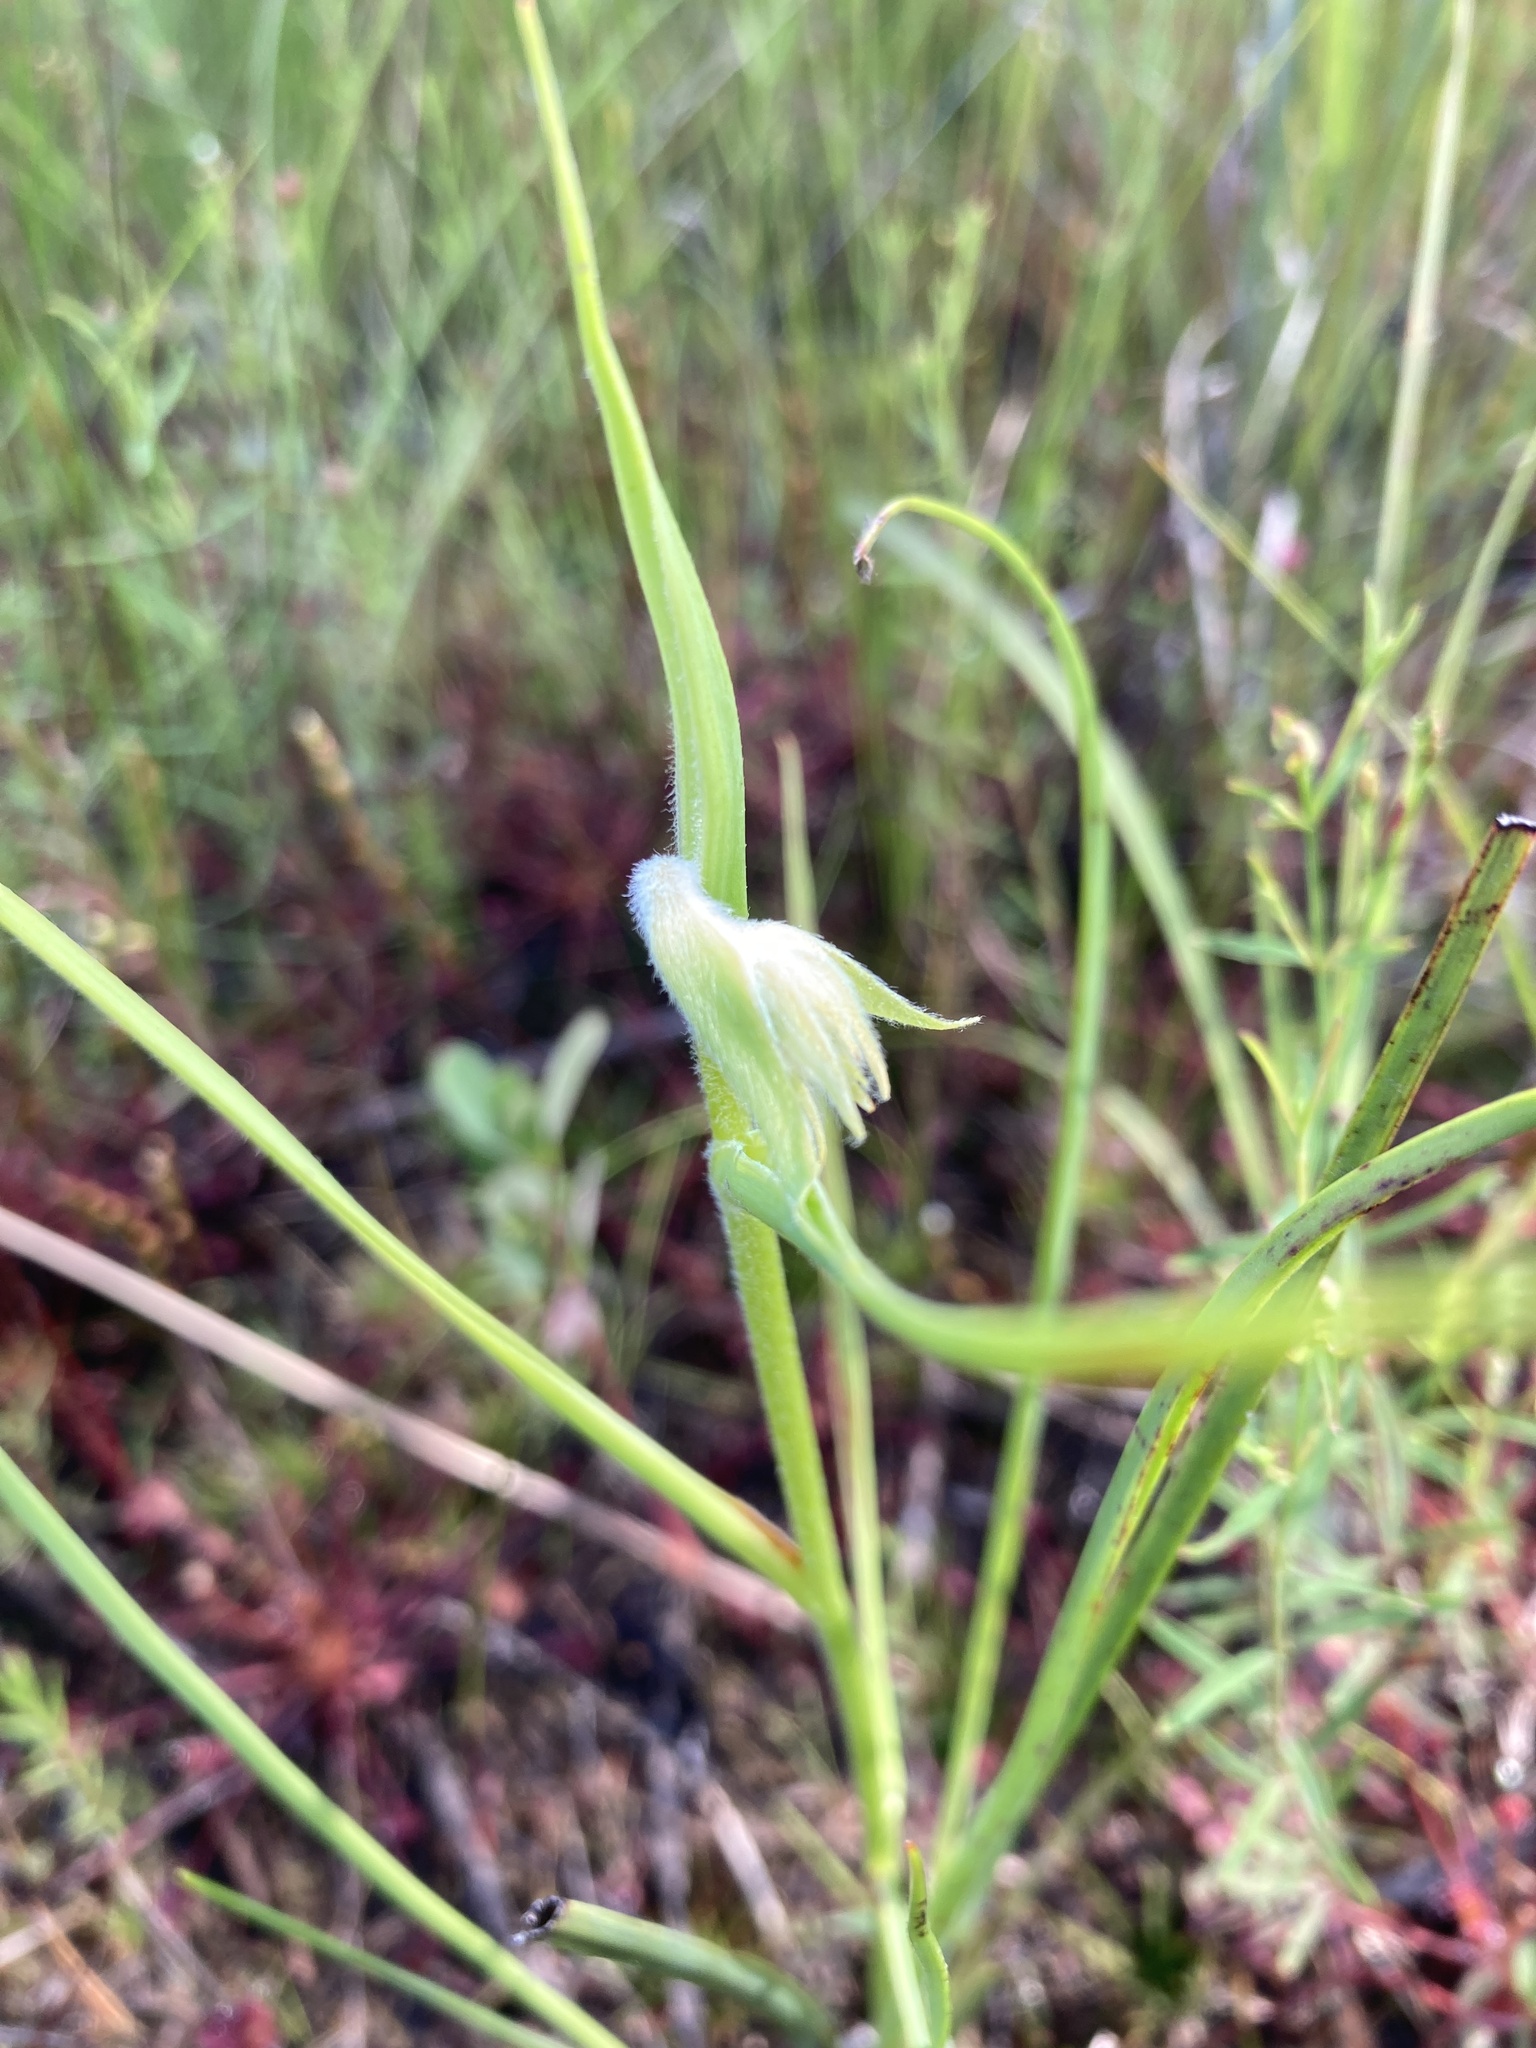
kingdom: Plantae
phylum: Tracheophyta
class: Liliopsida
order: Commelinales
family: Haemodoraceae
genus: Lachnanthes
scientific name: Lachnanthes caroliana
